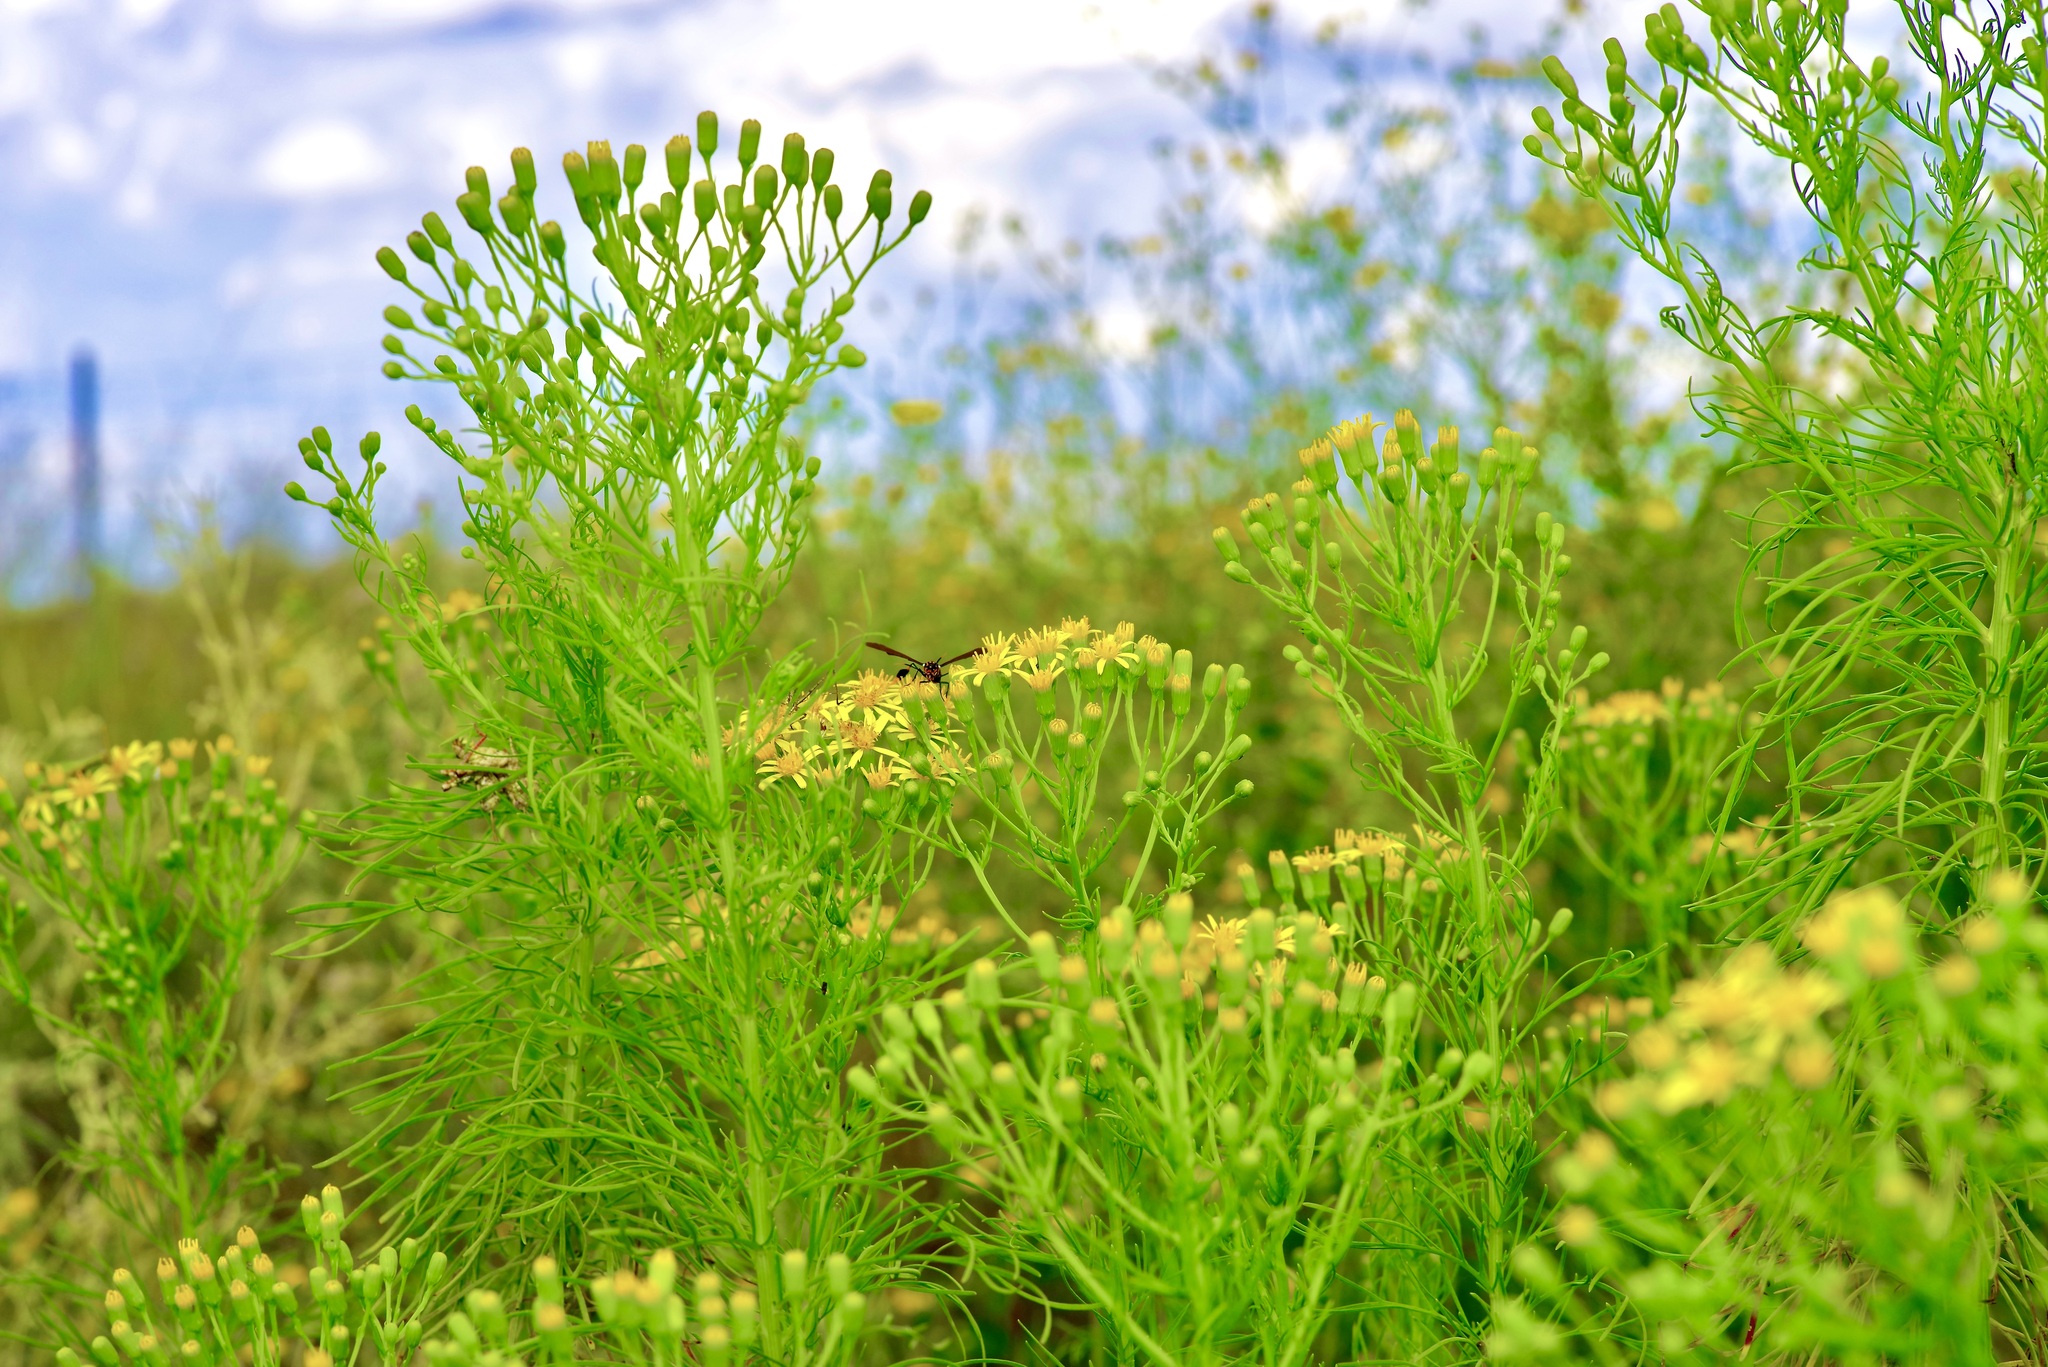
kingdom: Plantae
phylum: Tracheophyta
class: Magnoliopsida
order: Asterales
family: Asteraceae
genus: Senecio
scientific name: Senecio riddellii
